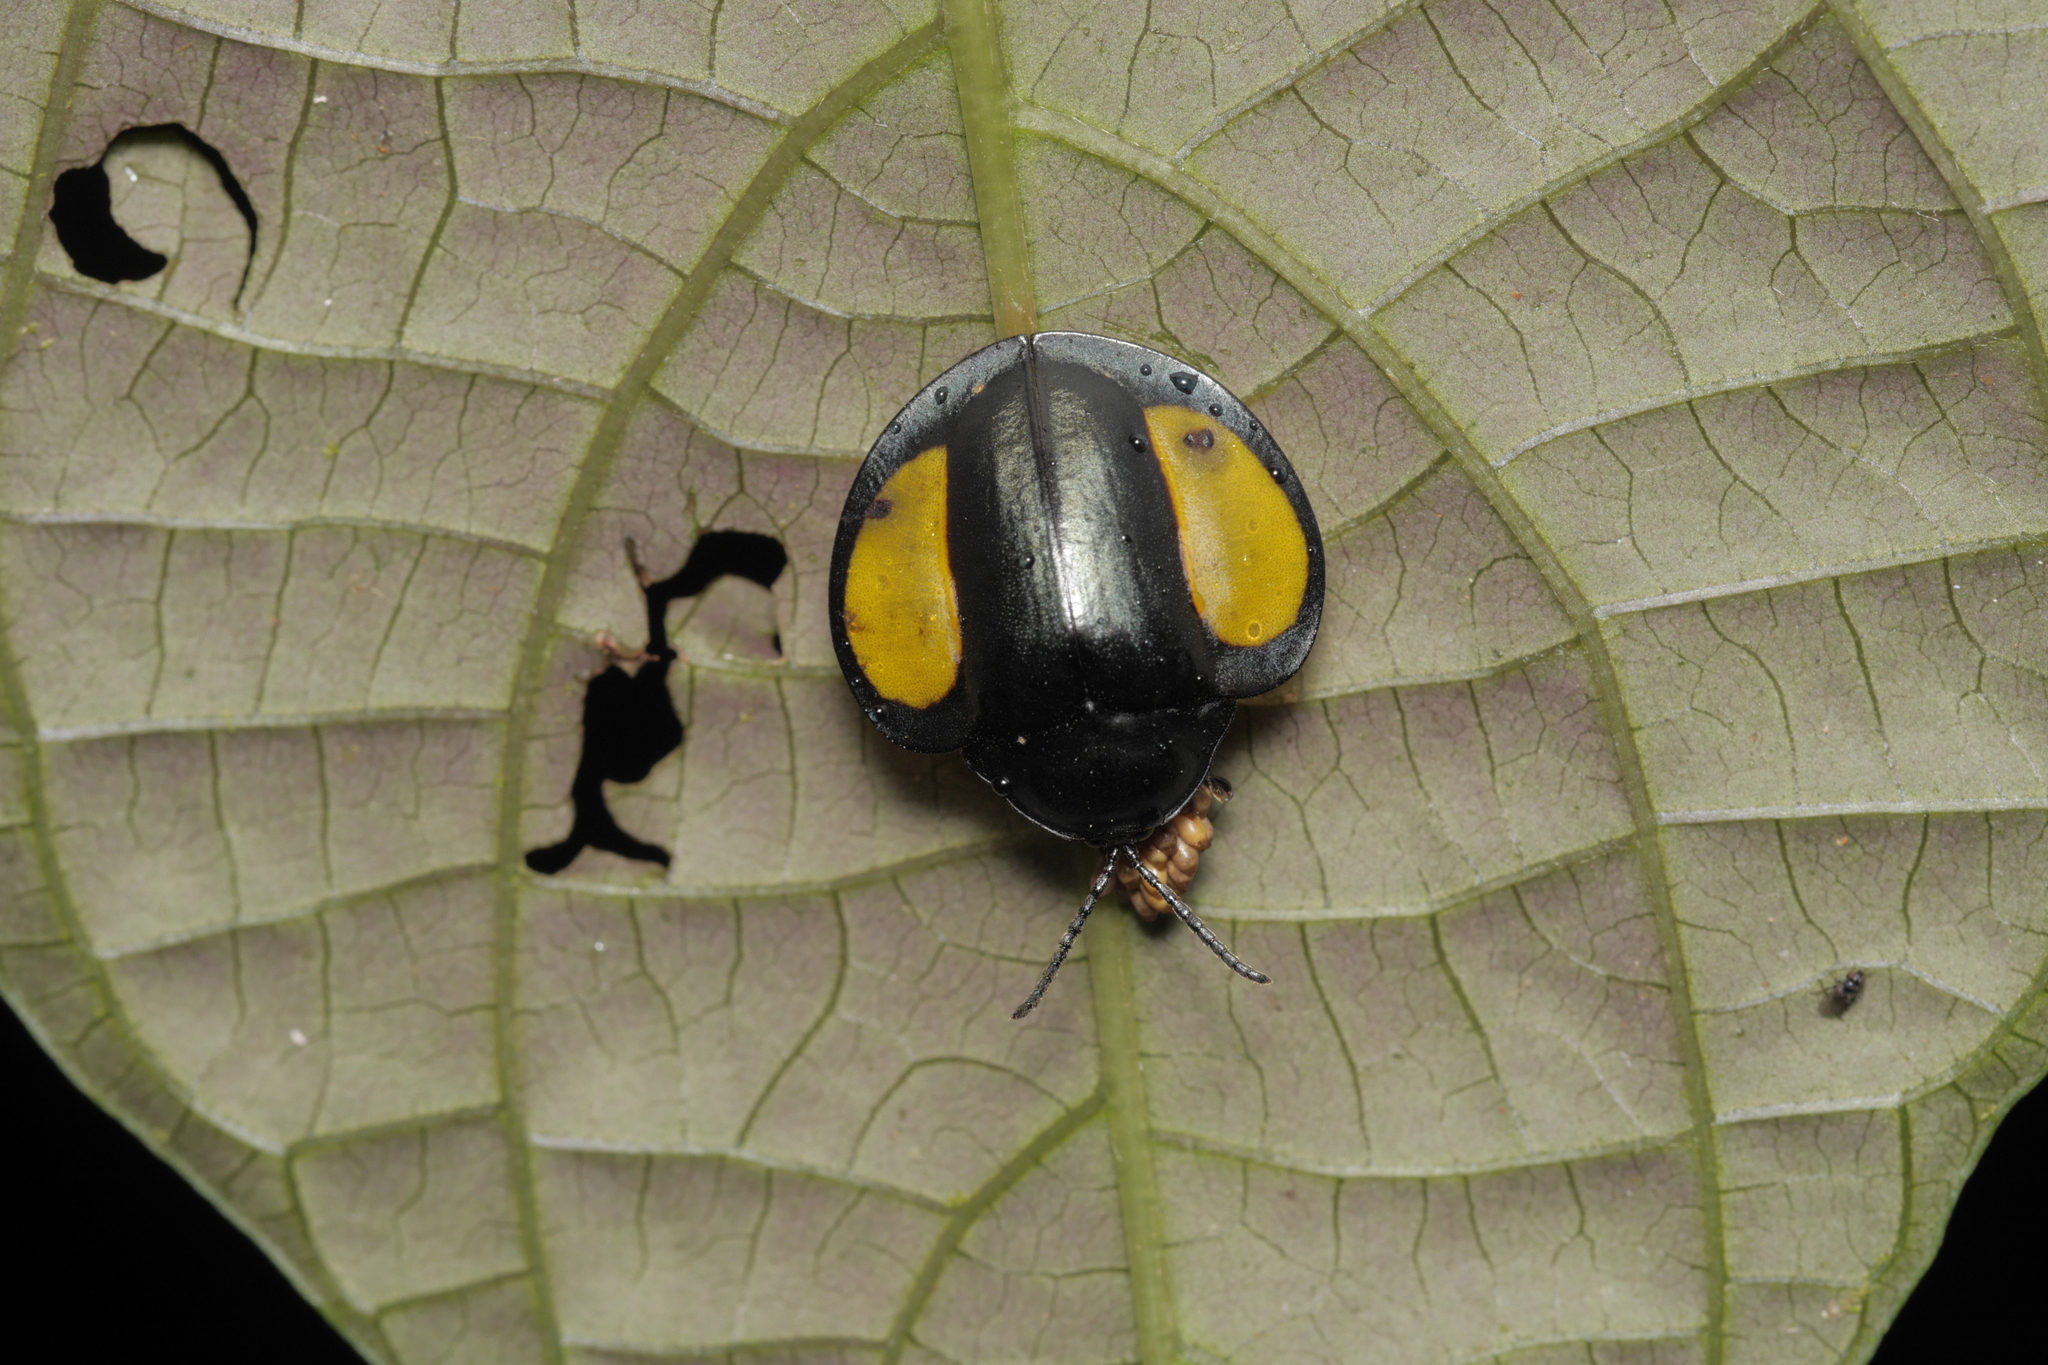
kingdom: Animalia
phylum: Arthropoda
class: Insecta
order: Coleoptera
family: Chrysomelidae
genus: Omaspides
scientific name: Omaspides specularis
